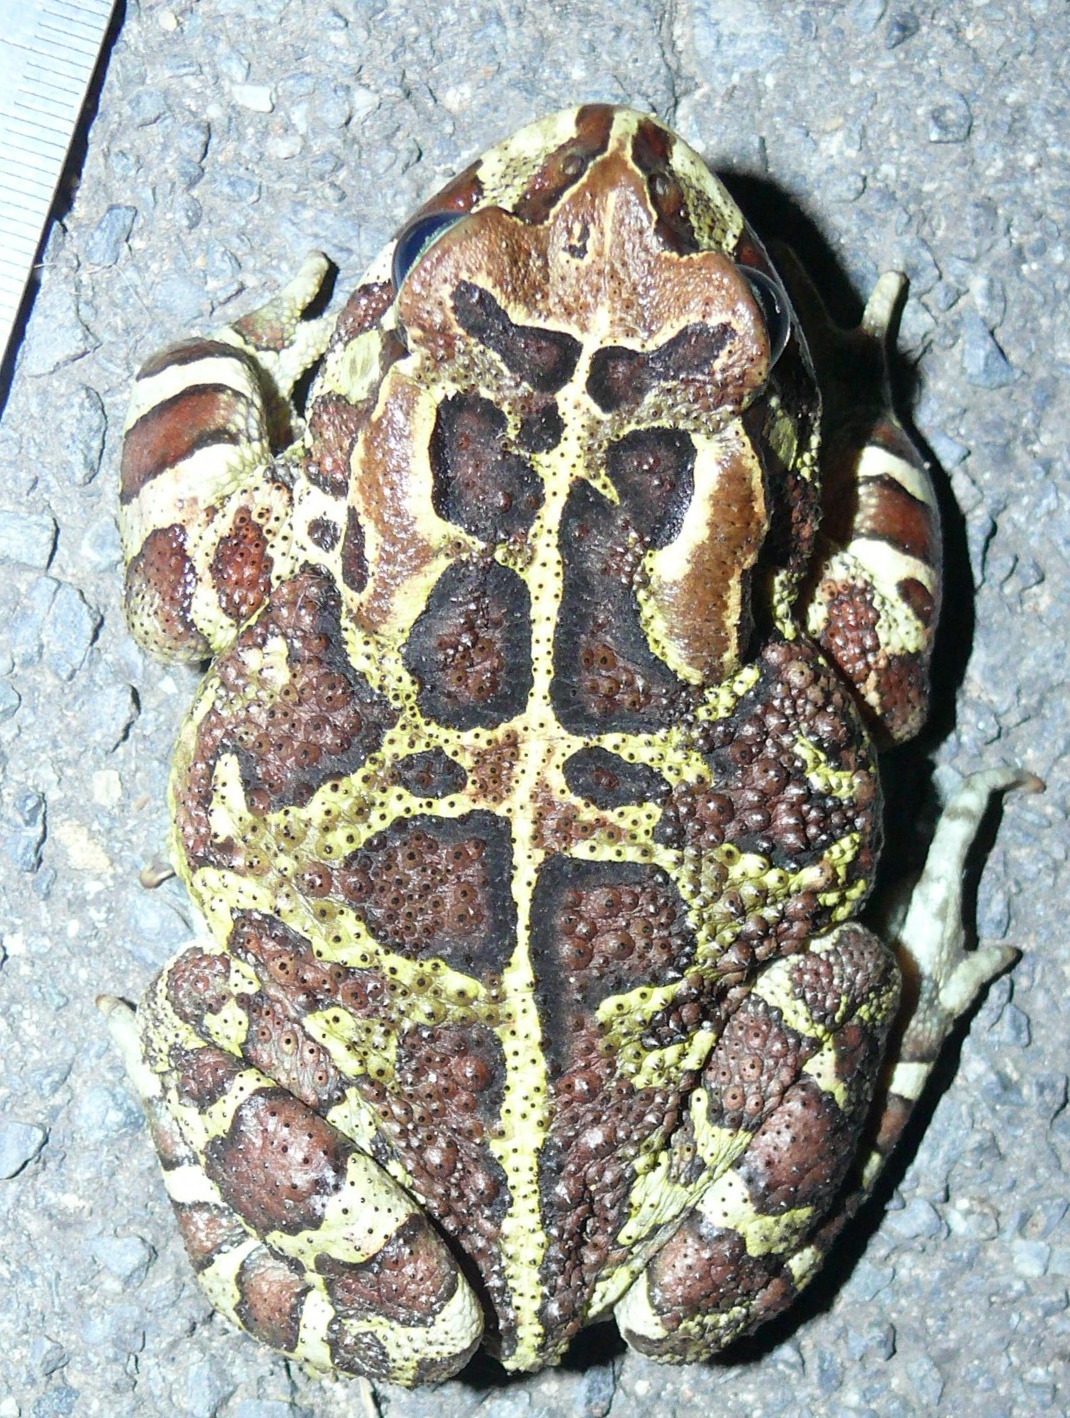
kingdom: Animalia
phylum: Chordata
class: Amphibia
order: Anura
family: Bufonidae
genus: Sclerophrys
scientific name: Sclerophrys pantherina
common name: Panther toad
